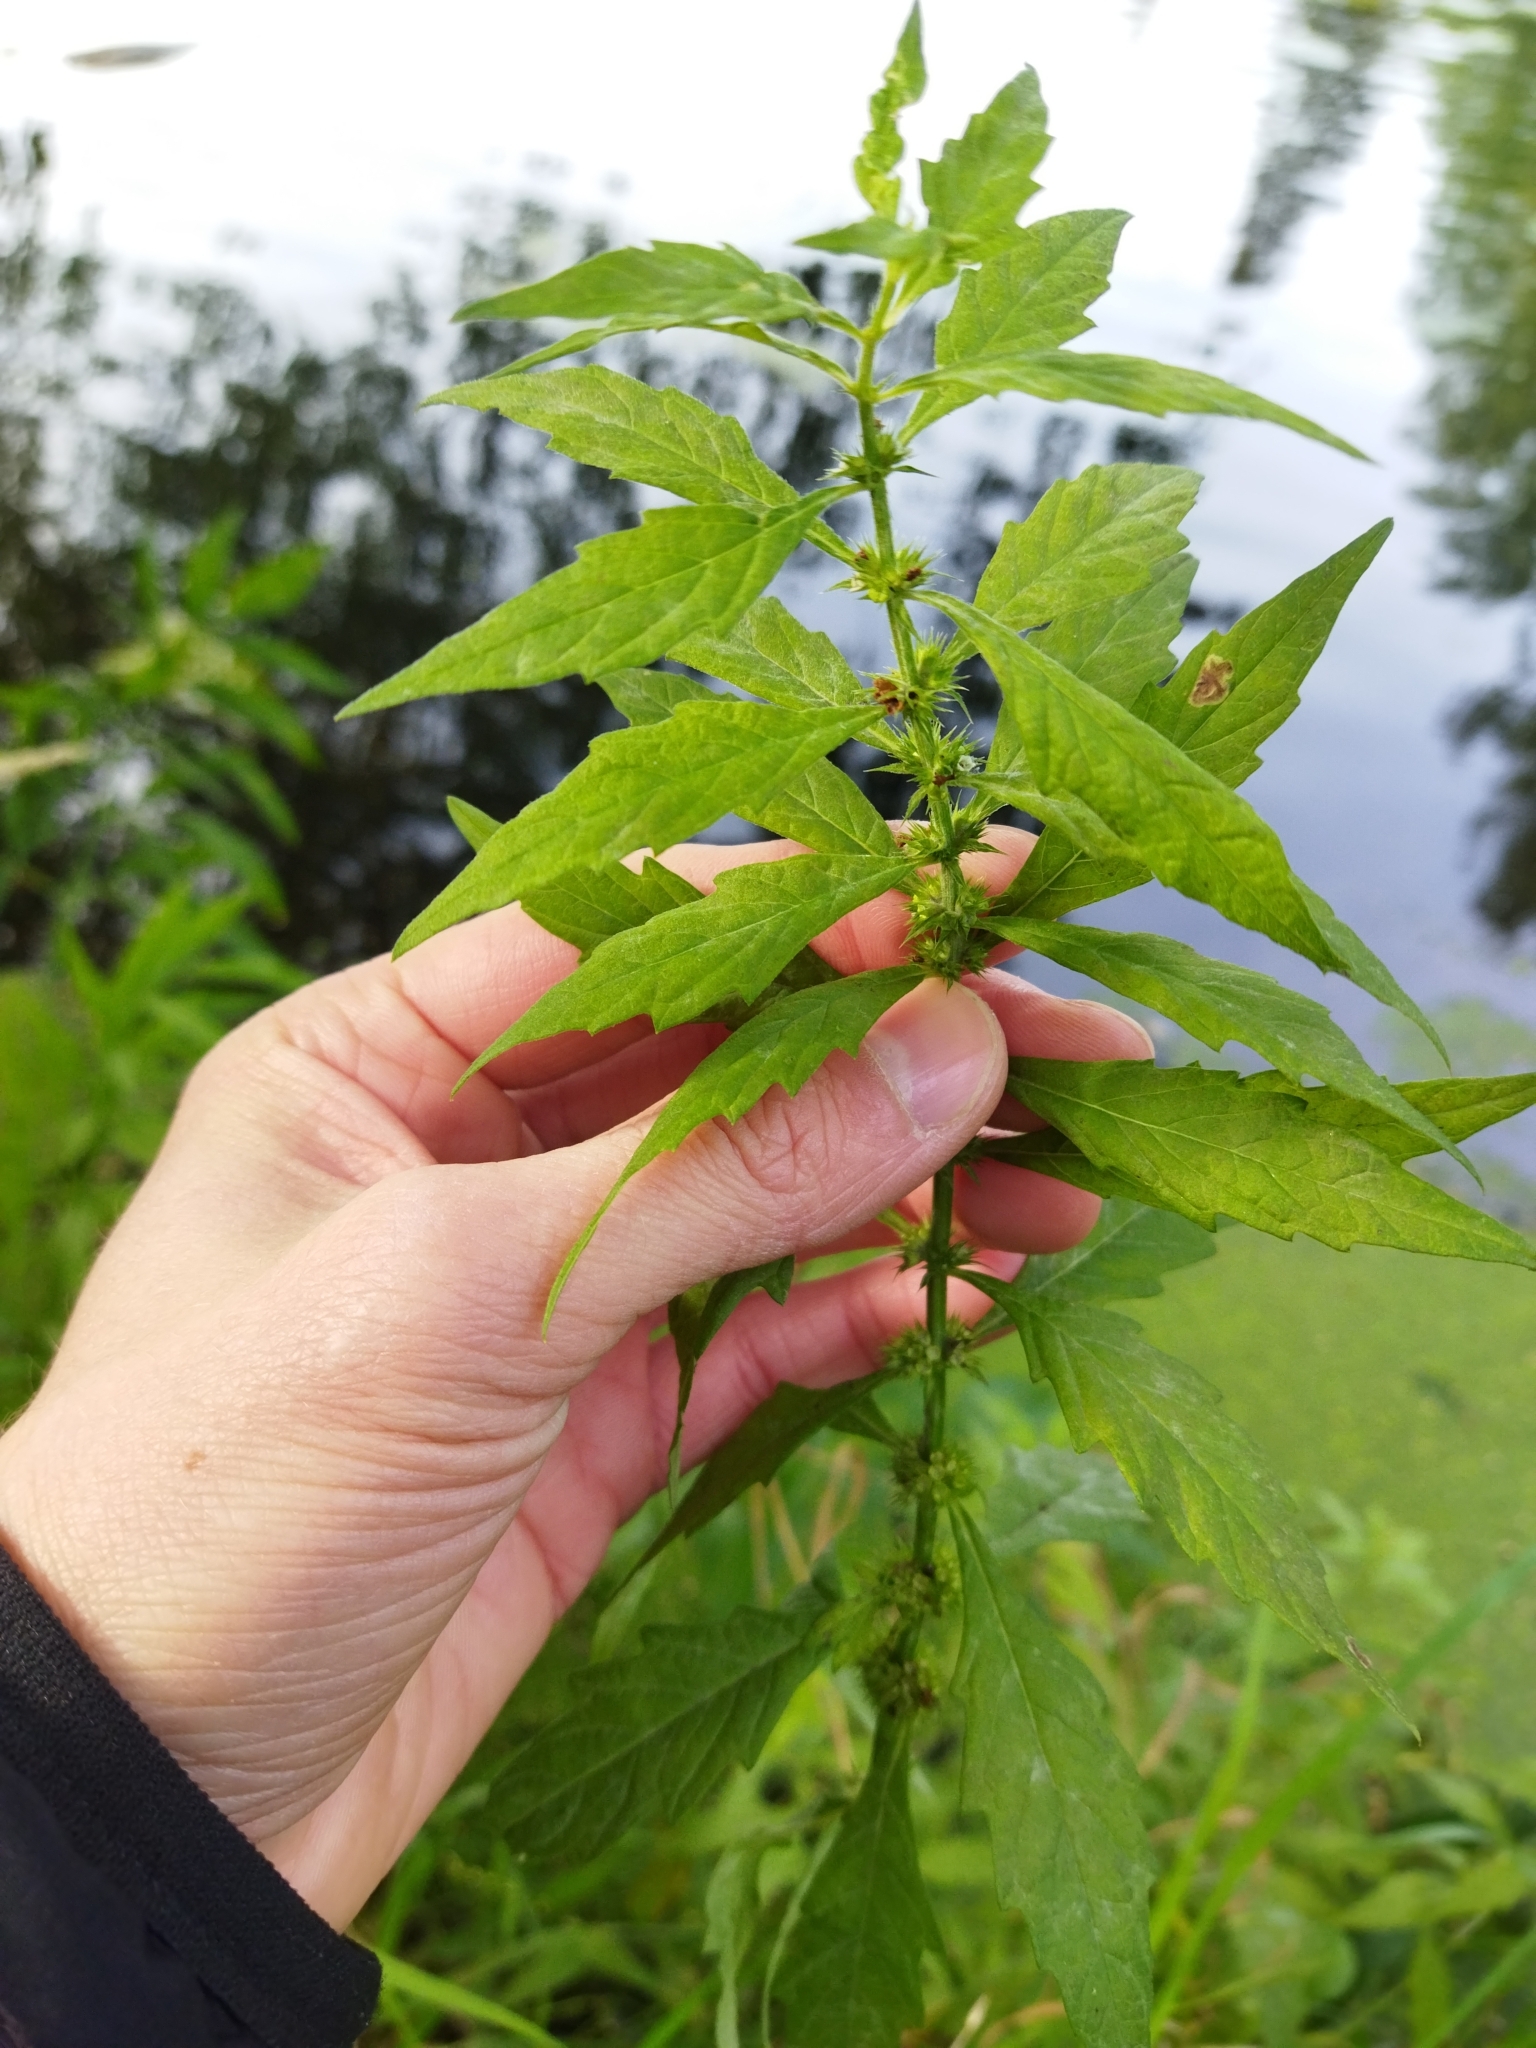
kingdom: Plantae
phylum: Tracheophyta
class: Magnoliopsida
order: Lamiales
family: Lamiaceae
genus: Lycopus
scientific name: Lycopus europaeus
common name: European bugleweed
